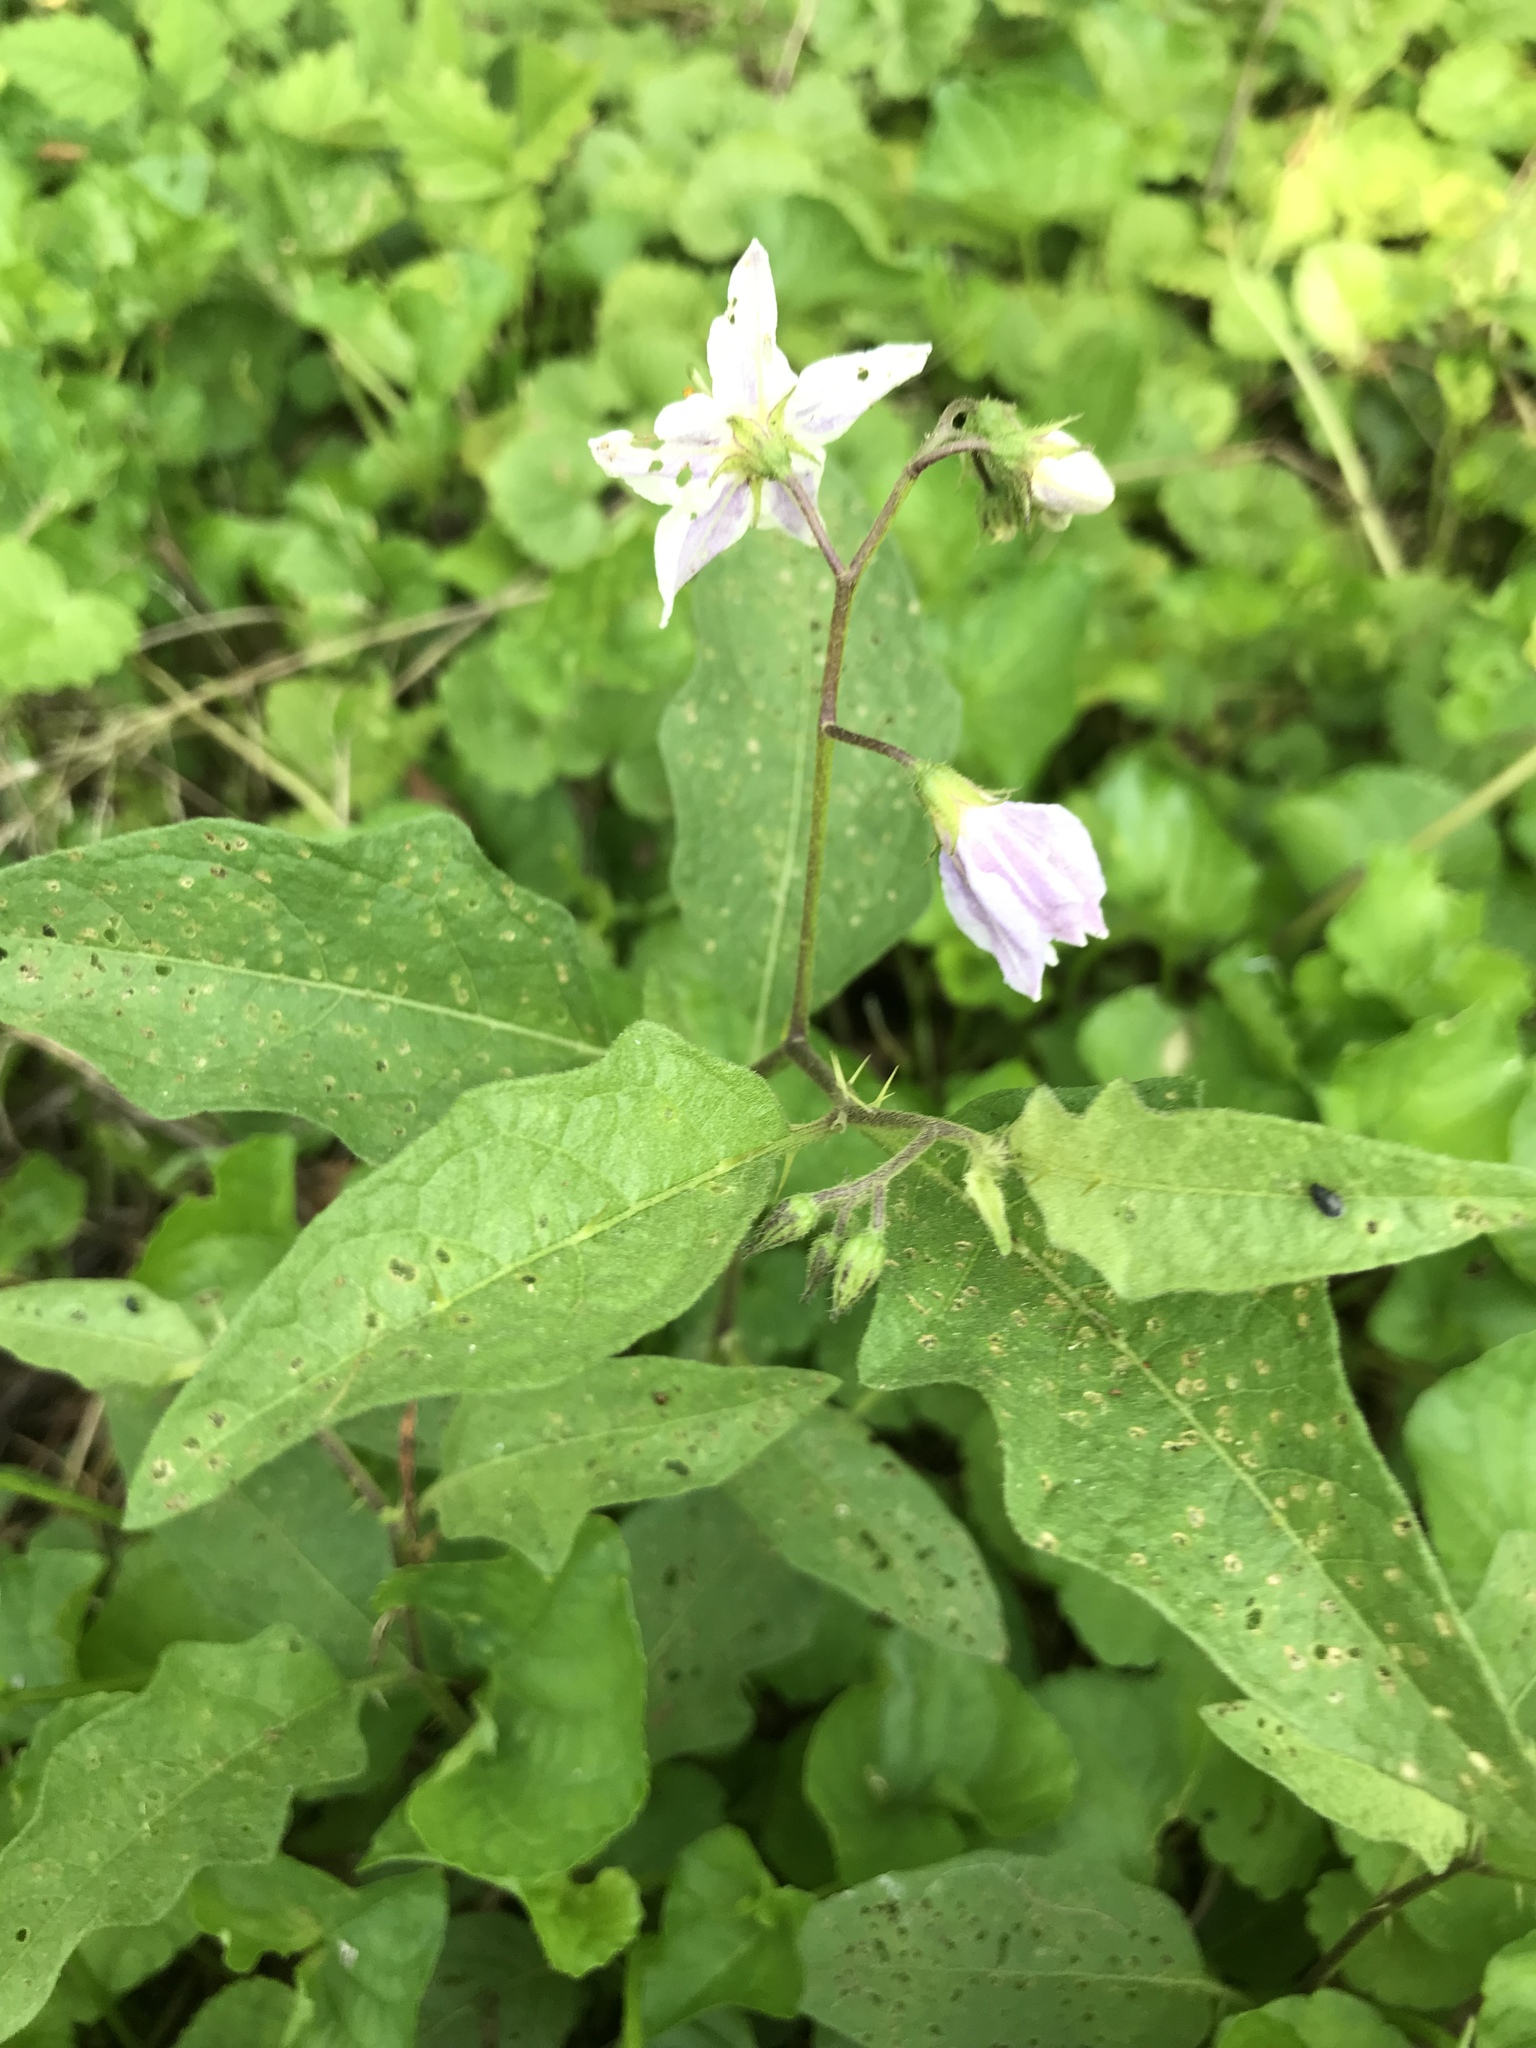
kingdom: Plantae
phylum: Tracheophyta
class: Magnoliopsida
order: Solanales
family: Solanaceae
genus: Solanum
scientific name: Solanum carolinense
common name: Horse-nettle
